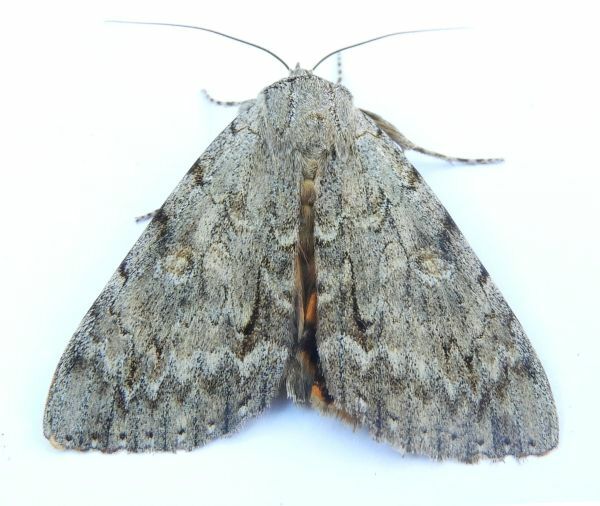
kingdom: Animalia
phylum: Arthropoda
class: Insecta
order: Lepidoptera
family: Erebidae
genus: Catocala
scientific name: Catocala habilis
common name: Habilis underwing
